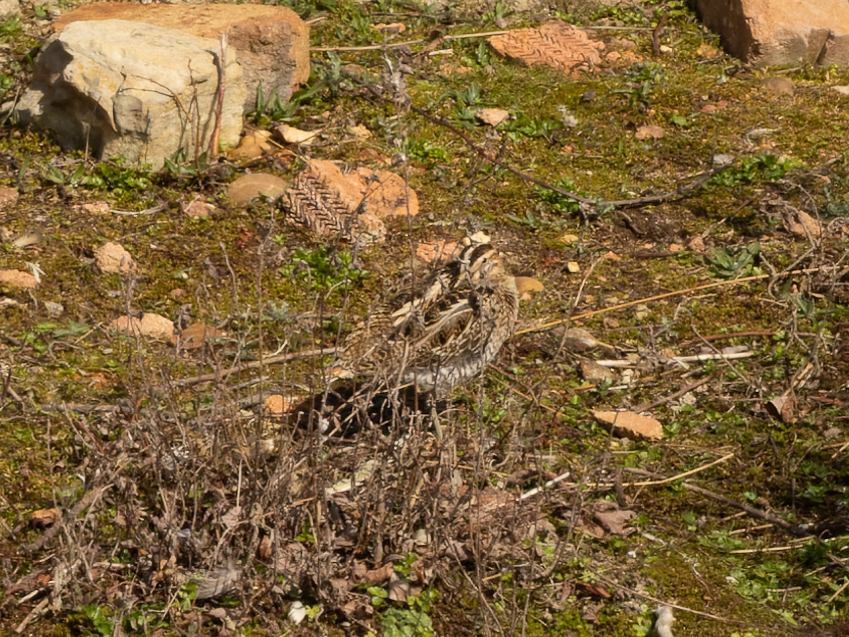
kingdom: Animalia
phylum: Chordata
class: Aves
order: Charadriiformes
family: Scolopacidae
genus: Gallinago
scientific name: Gallinago gallinago
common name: Common snipe
